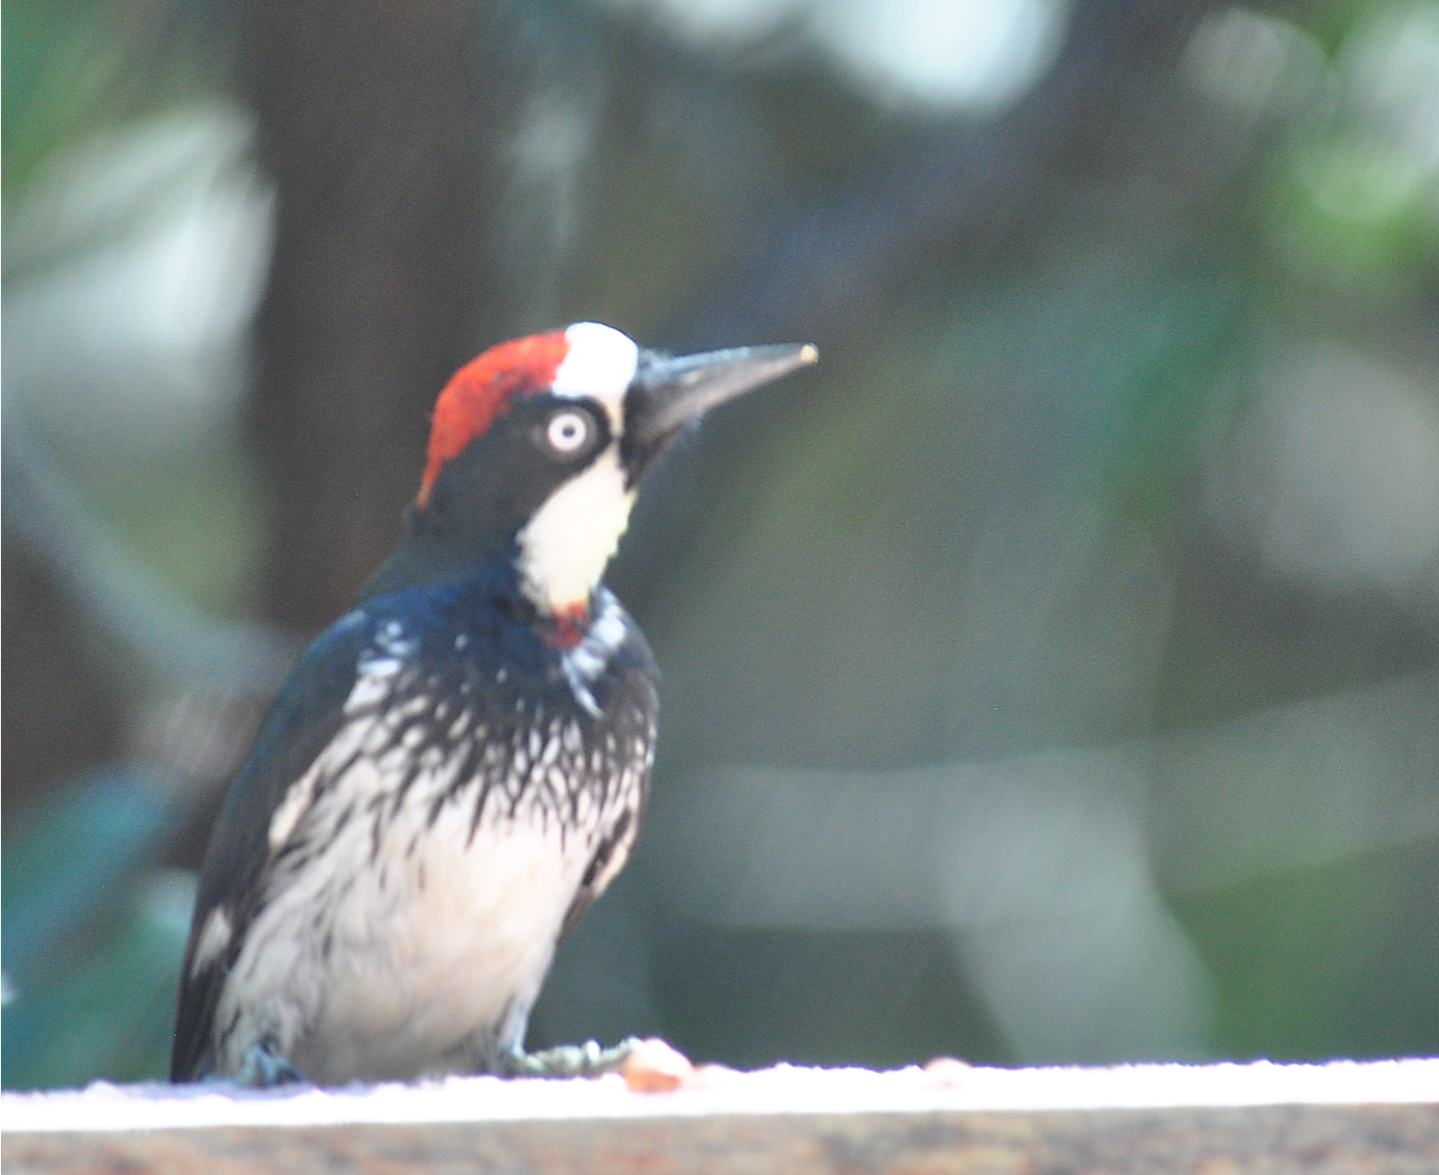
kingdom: Animalia
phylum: Chordata
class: Aves
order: Piciformes
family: Picidae
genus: Melanerpes
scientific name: Melanerpes formicivorus
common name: Acorn woodpecker
